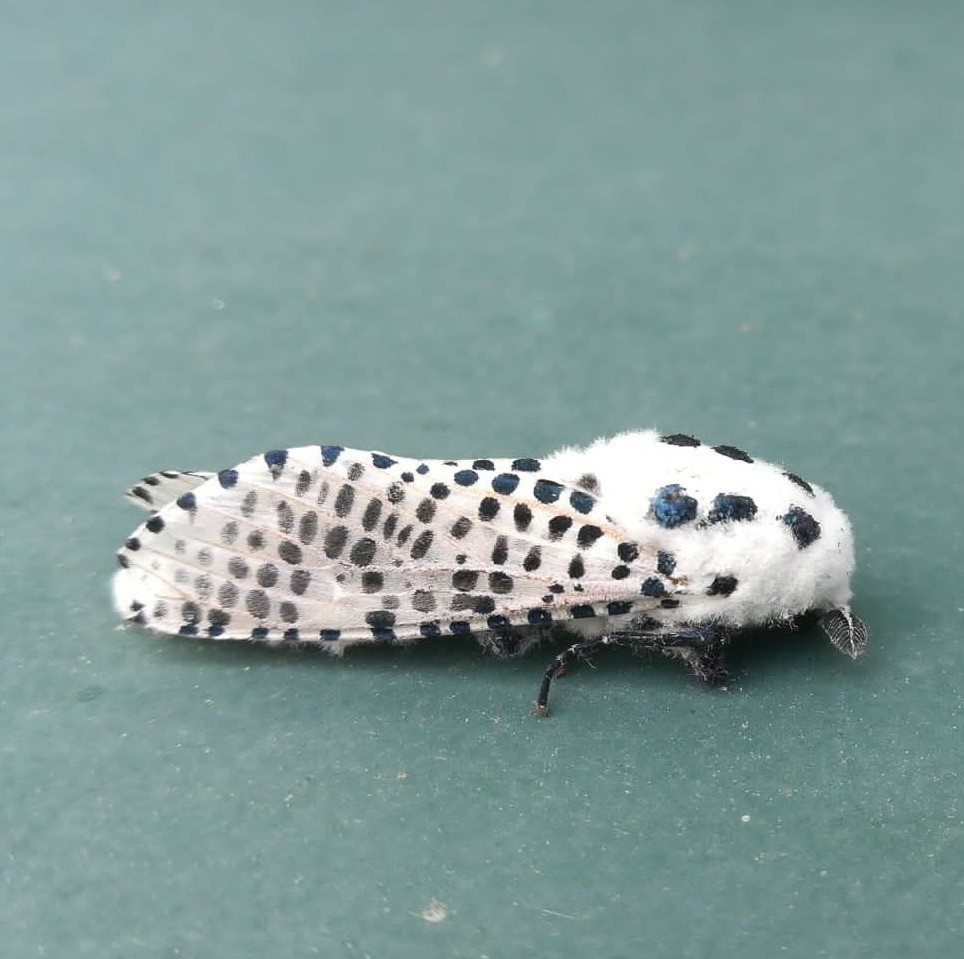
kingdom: Animalia
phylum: Arthropoda
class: Insecta
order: Lepidoptera
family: Cossidae
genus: Zeuzera
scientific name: Zeuzera pyrina
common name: Leopard moth
